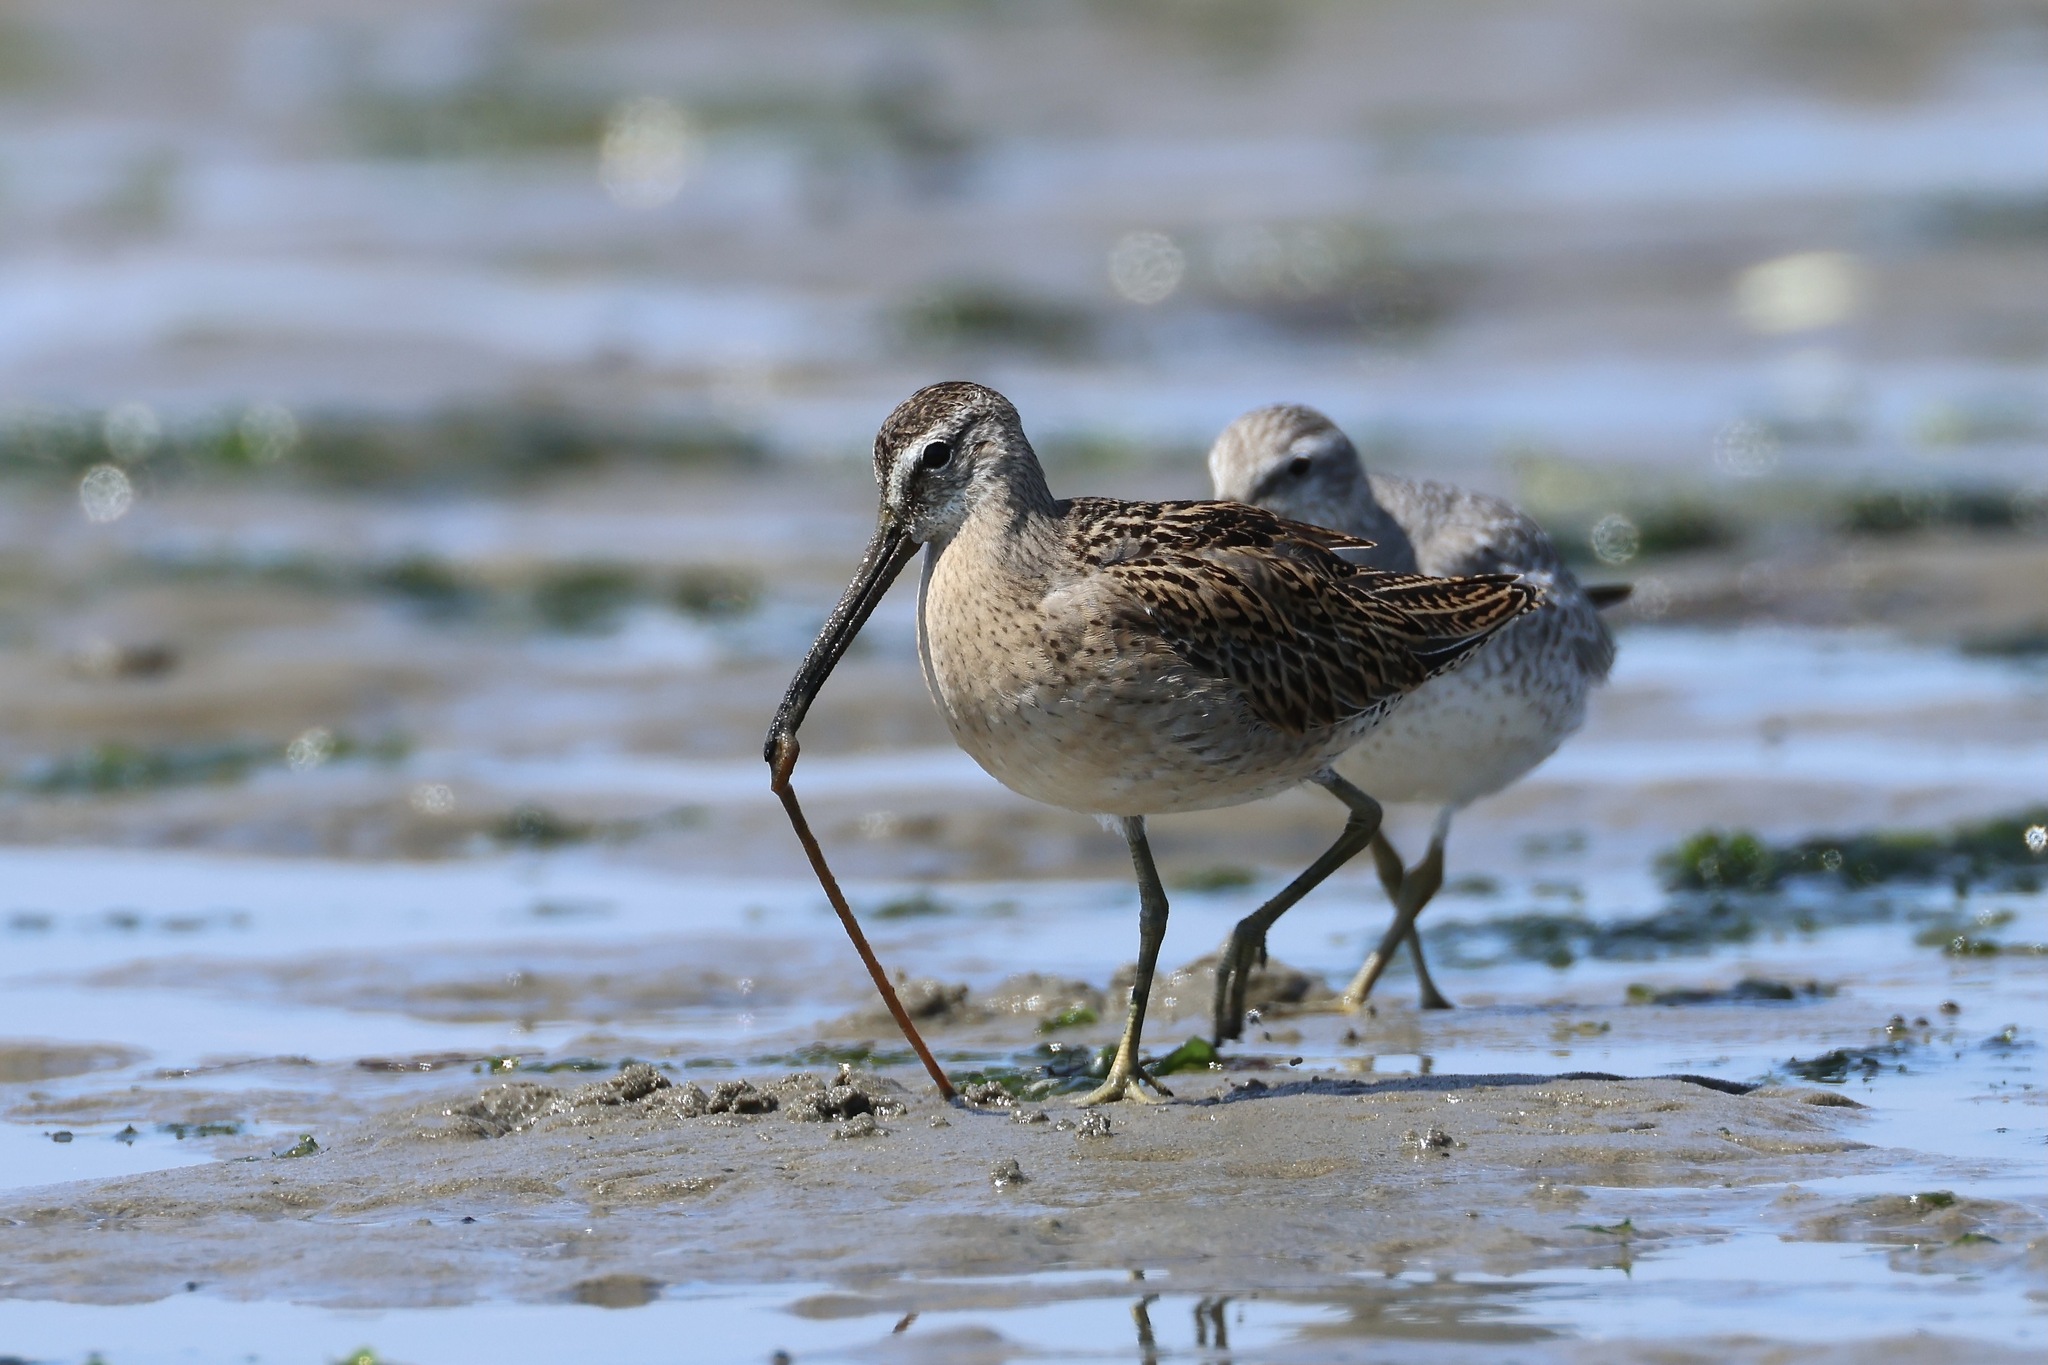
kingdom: Animalia
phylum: Chordata
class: Aves
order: Charadriiformes
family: Scolopacidae
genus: Limnodromus
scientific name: Limnodromus griseus
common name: Short-billed dowitcher
